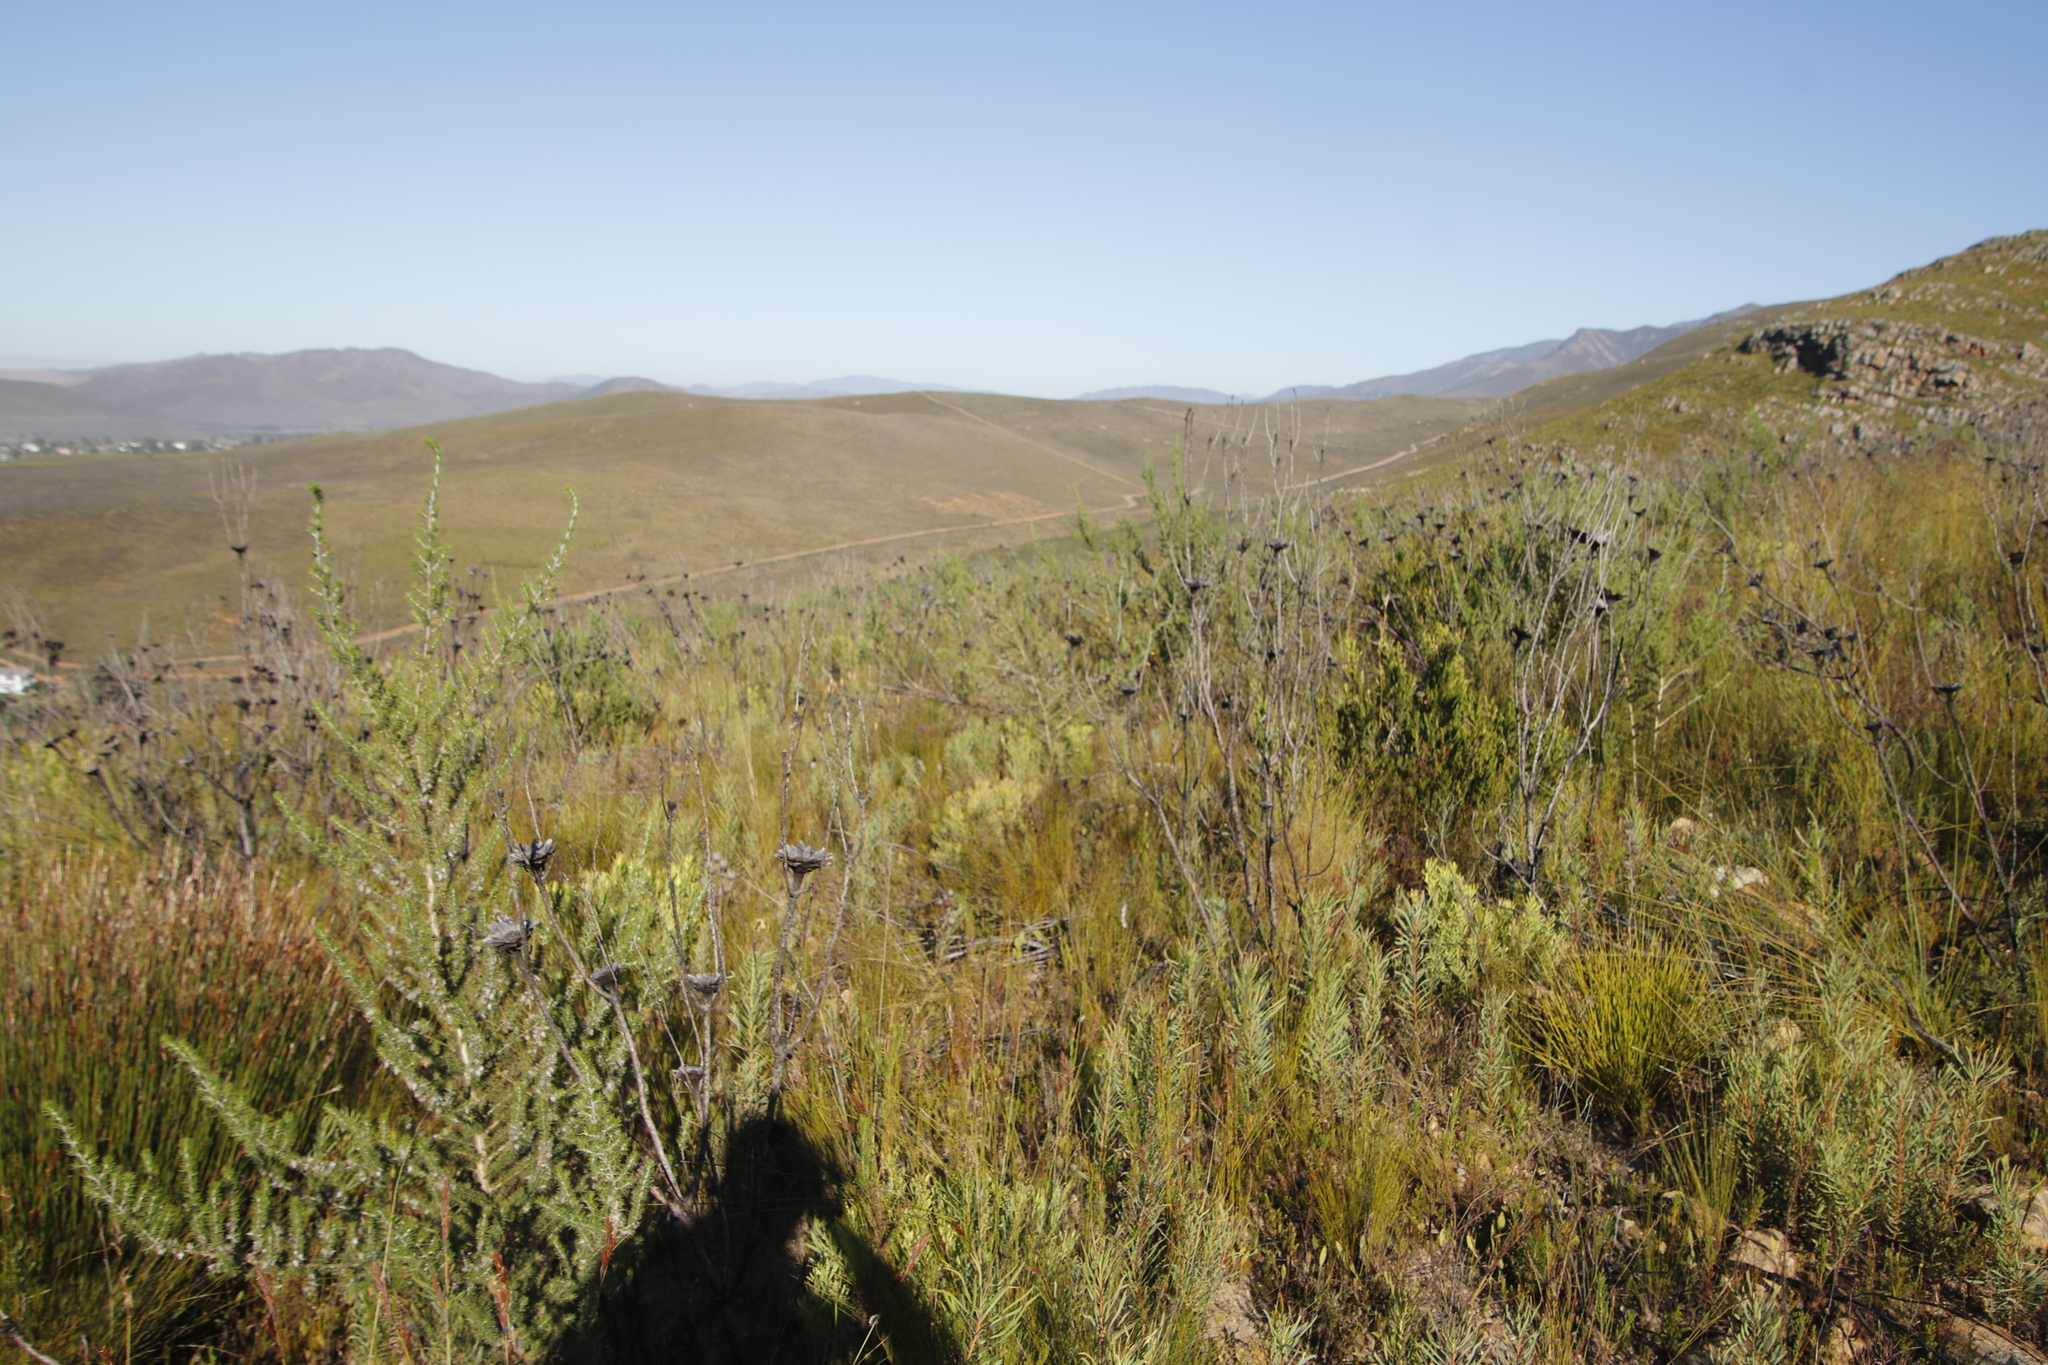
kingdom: Plantae
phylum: Tracheophyta
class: Magnoliopsida
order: Proteales
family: Proteaceae
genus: Protea
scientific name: Protea repens
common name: Sugarbush
